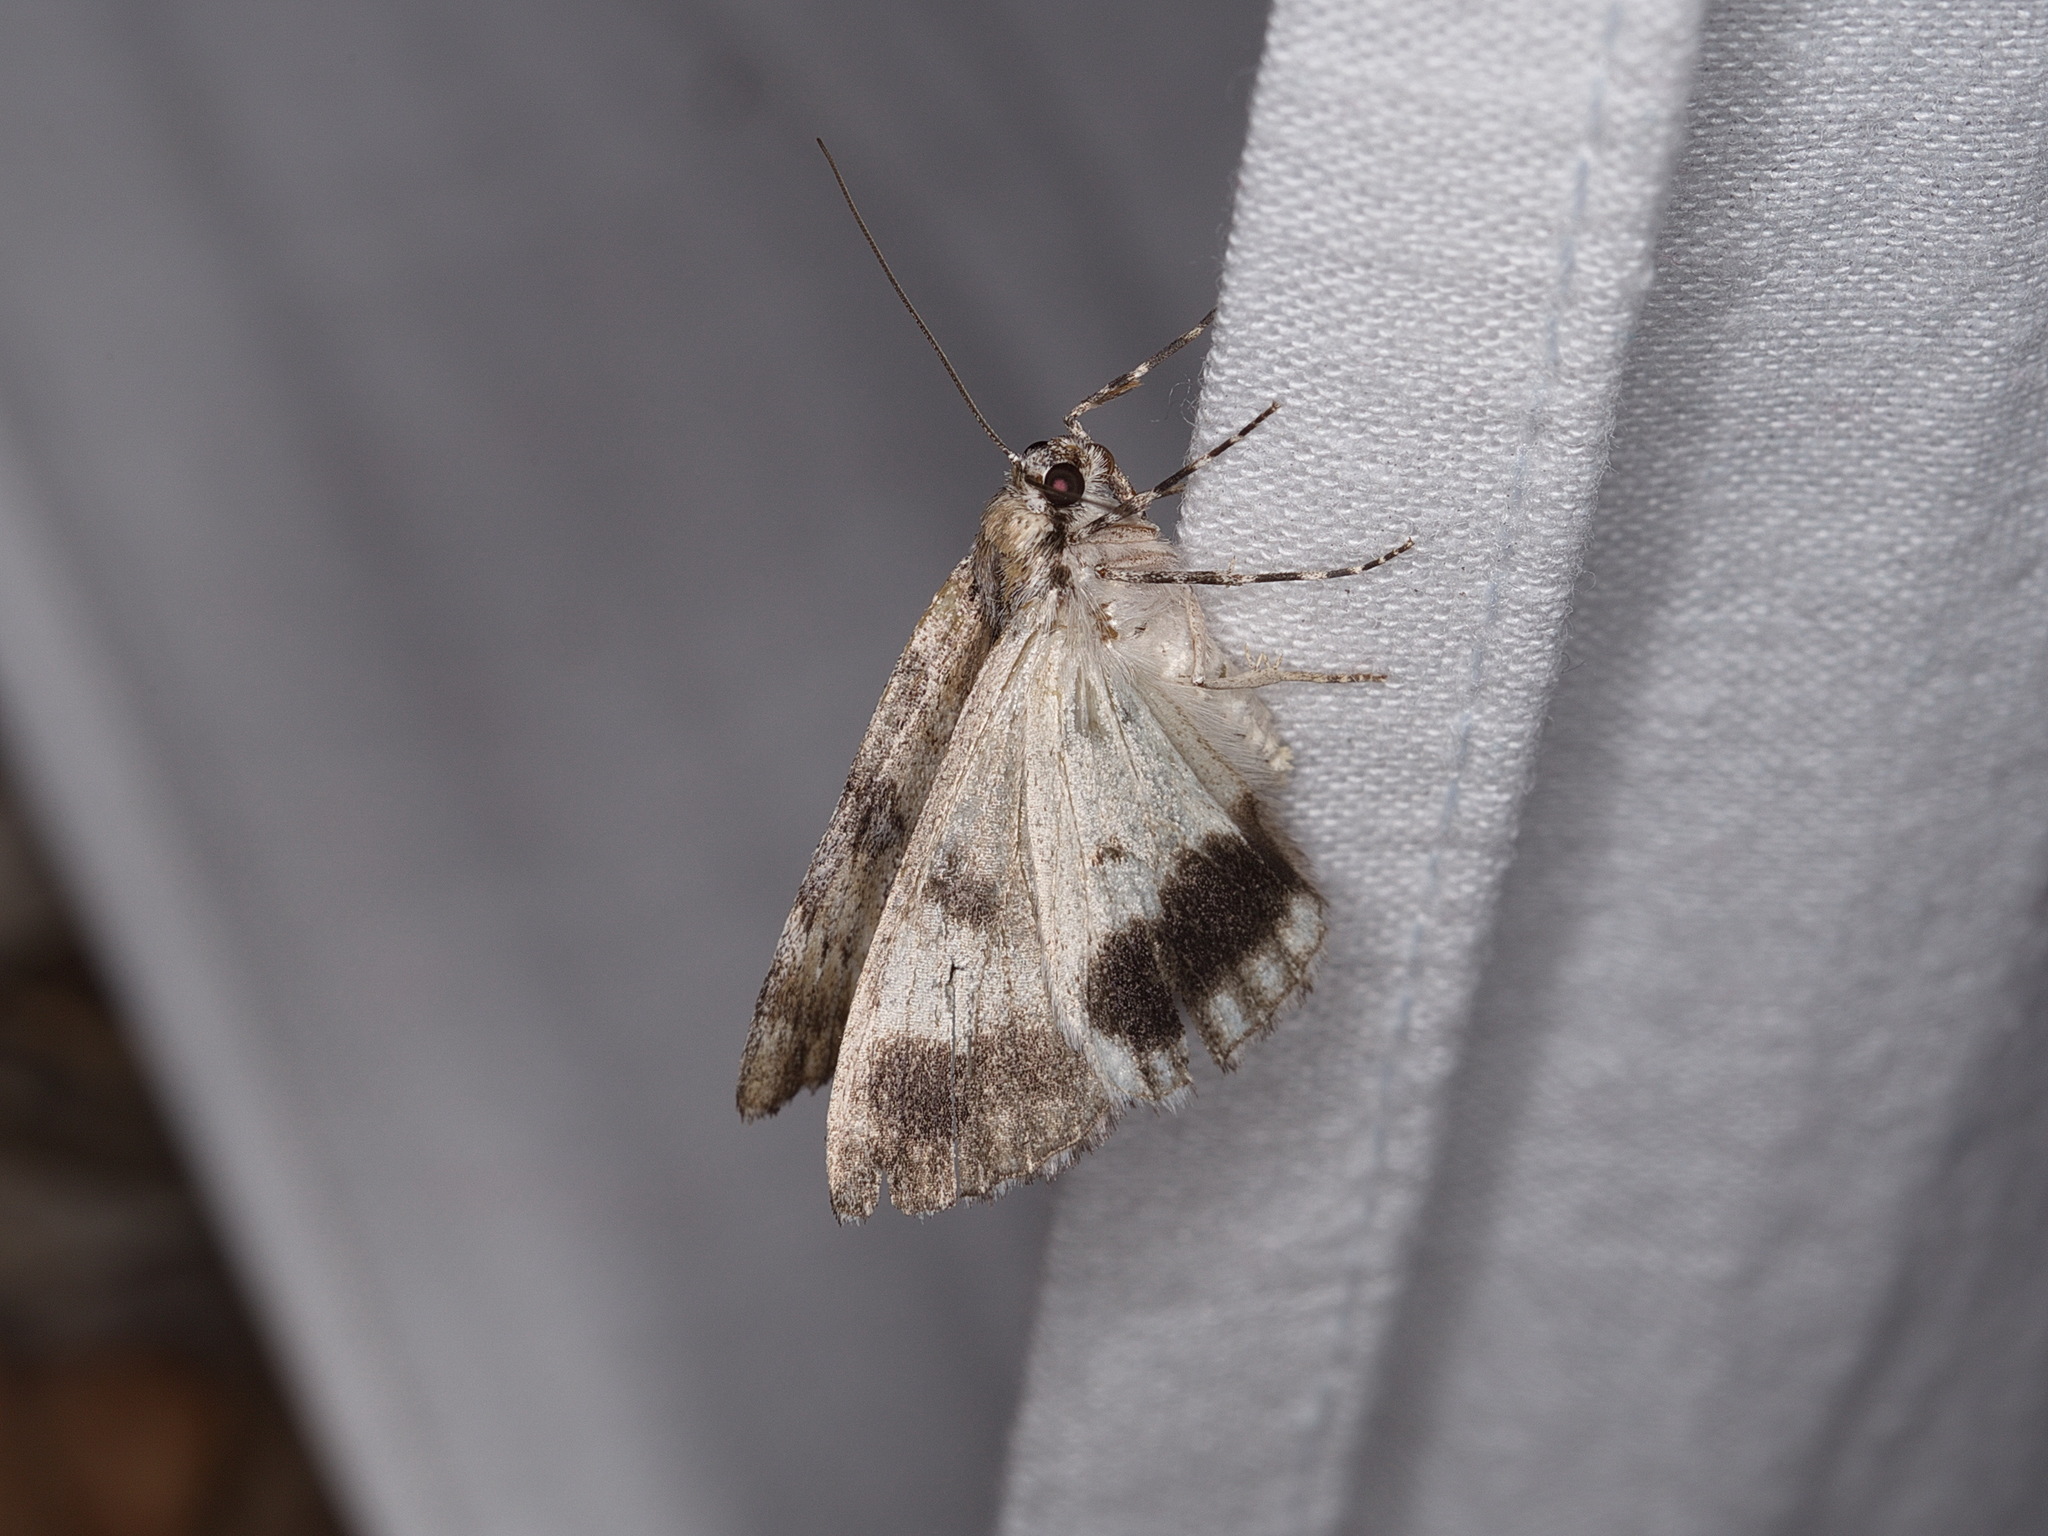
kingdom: Animalia
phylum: Arthropoda
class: Insecta
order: Lepidoptera
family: Geometridae
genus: Rhuma
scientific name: Rhuma argyraspis
